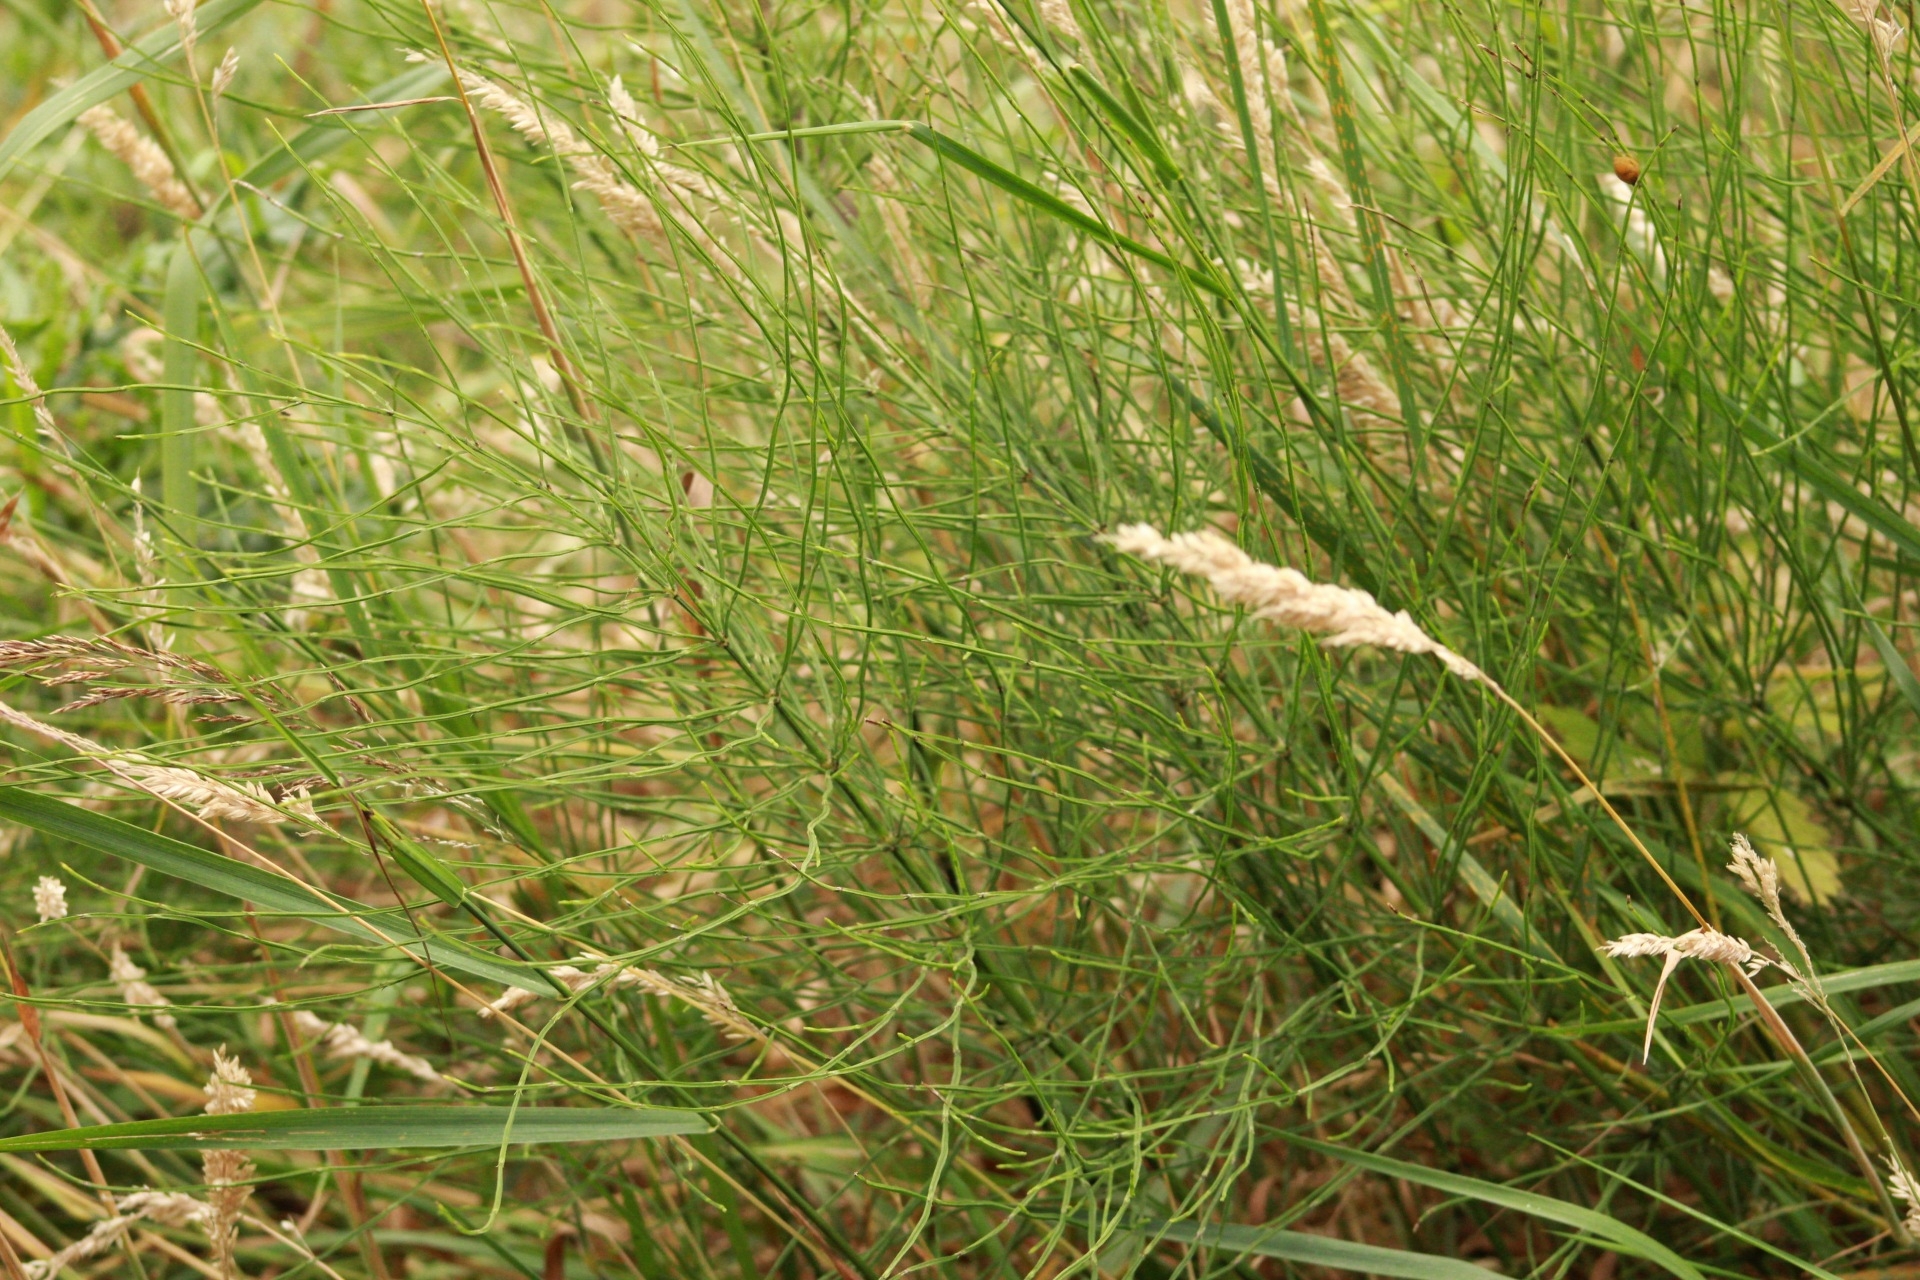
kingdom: Plantae
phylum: Tracheophyta
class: Polypodiopsida
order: Equisetales
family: Equisetaceae
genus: Equisetum
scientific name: Equisetum arvense
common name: Field horsetail
